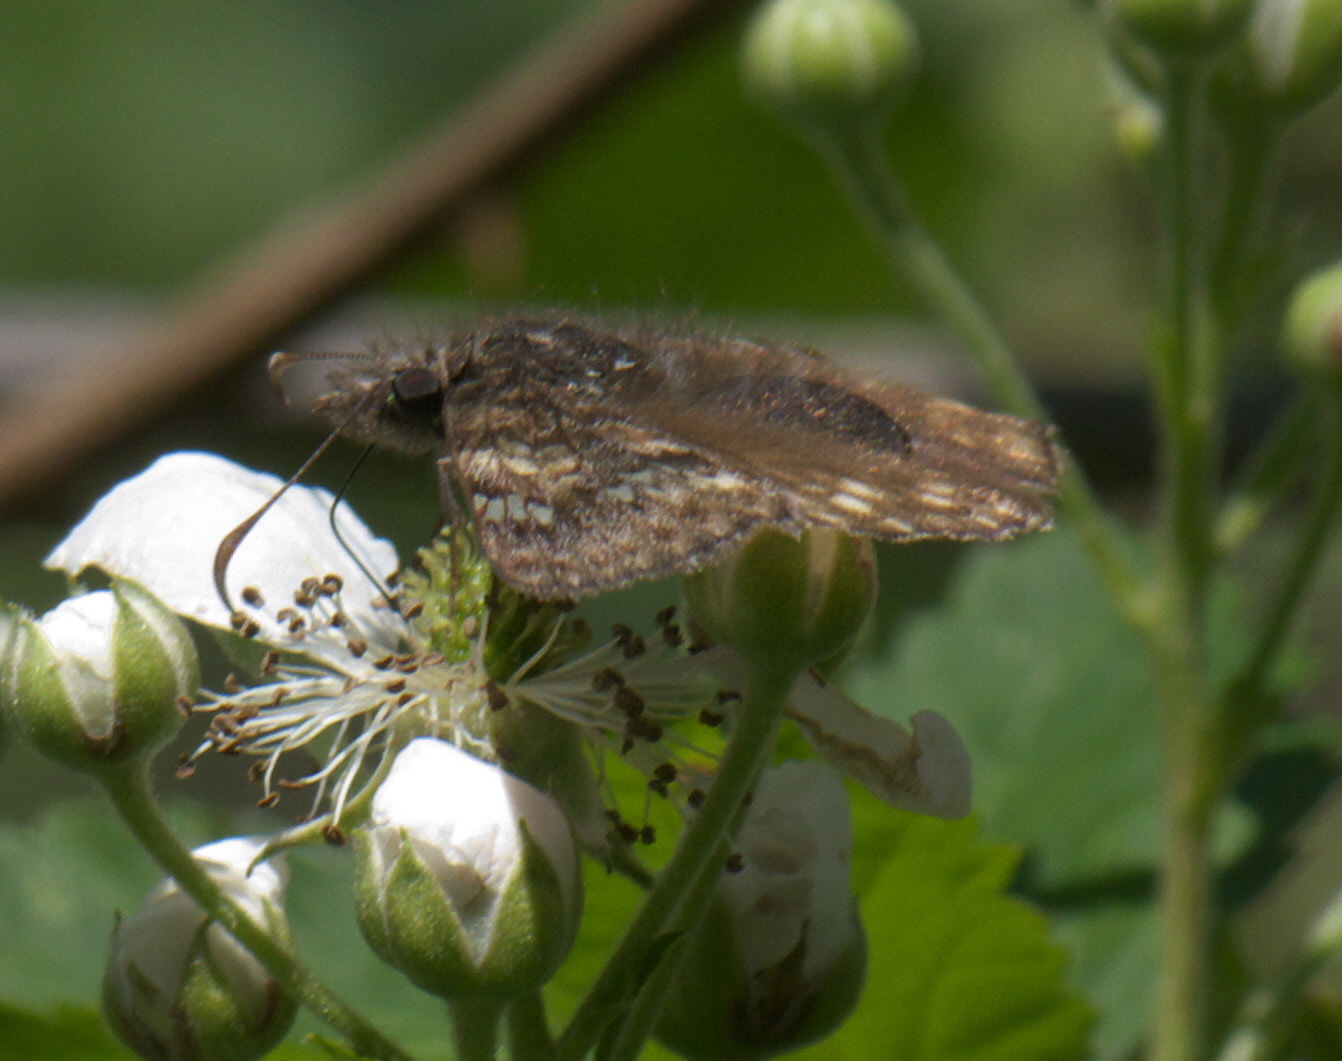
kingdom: Animalia
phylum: Arthropoda
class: Insecta
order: Lepidoptera
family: Hesperiidae
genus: Erynnis
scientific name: Erynnis juvenalis
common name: Juvenal's duskywing
